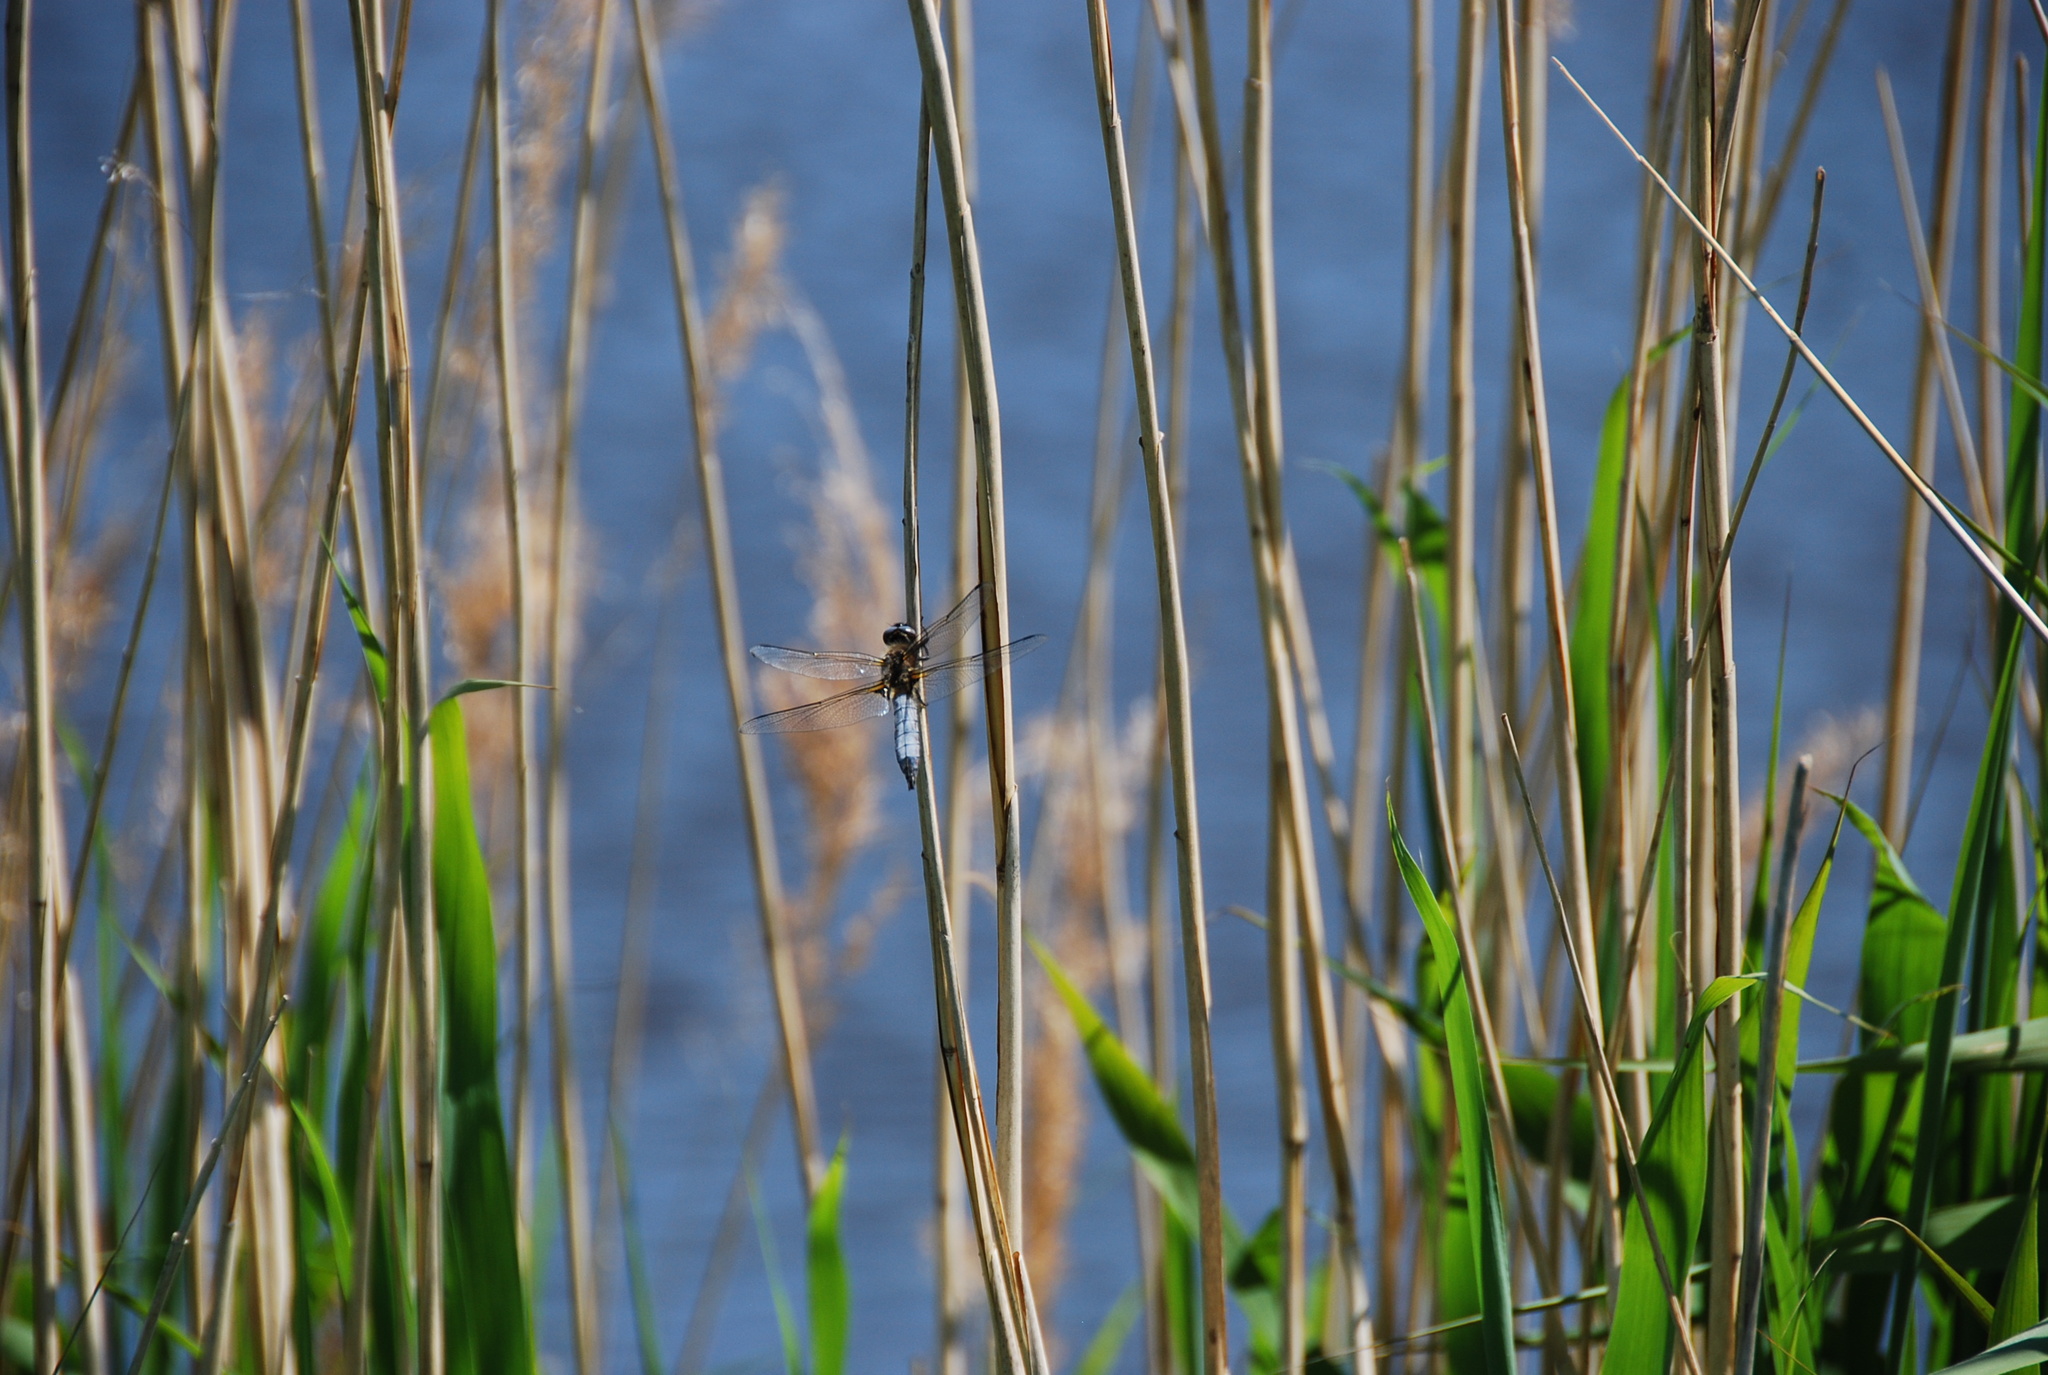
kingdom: Animalia
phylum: Arthropoda
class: Insecta
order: Odonata
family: Libellulidae
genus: Libellula
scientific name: Libellula fulva
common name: Blue chaser
